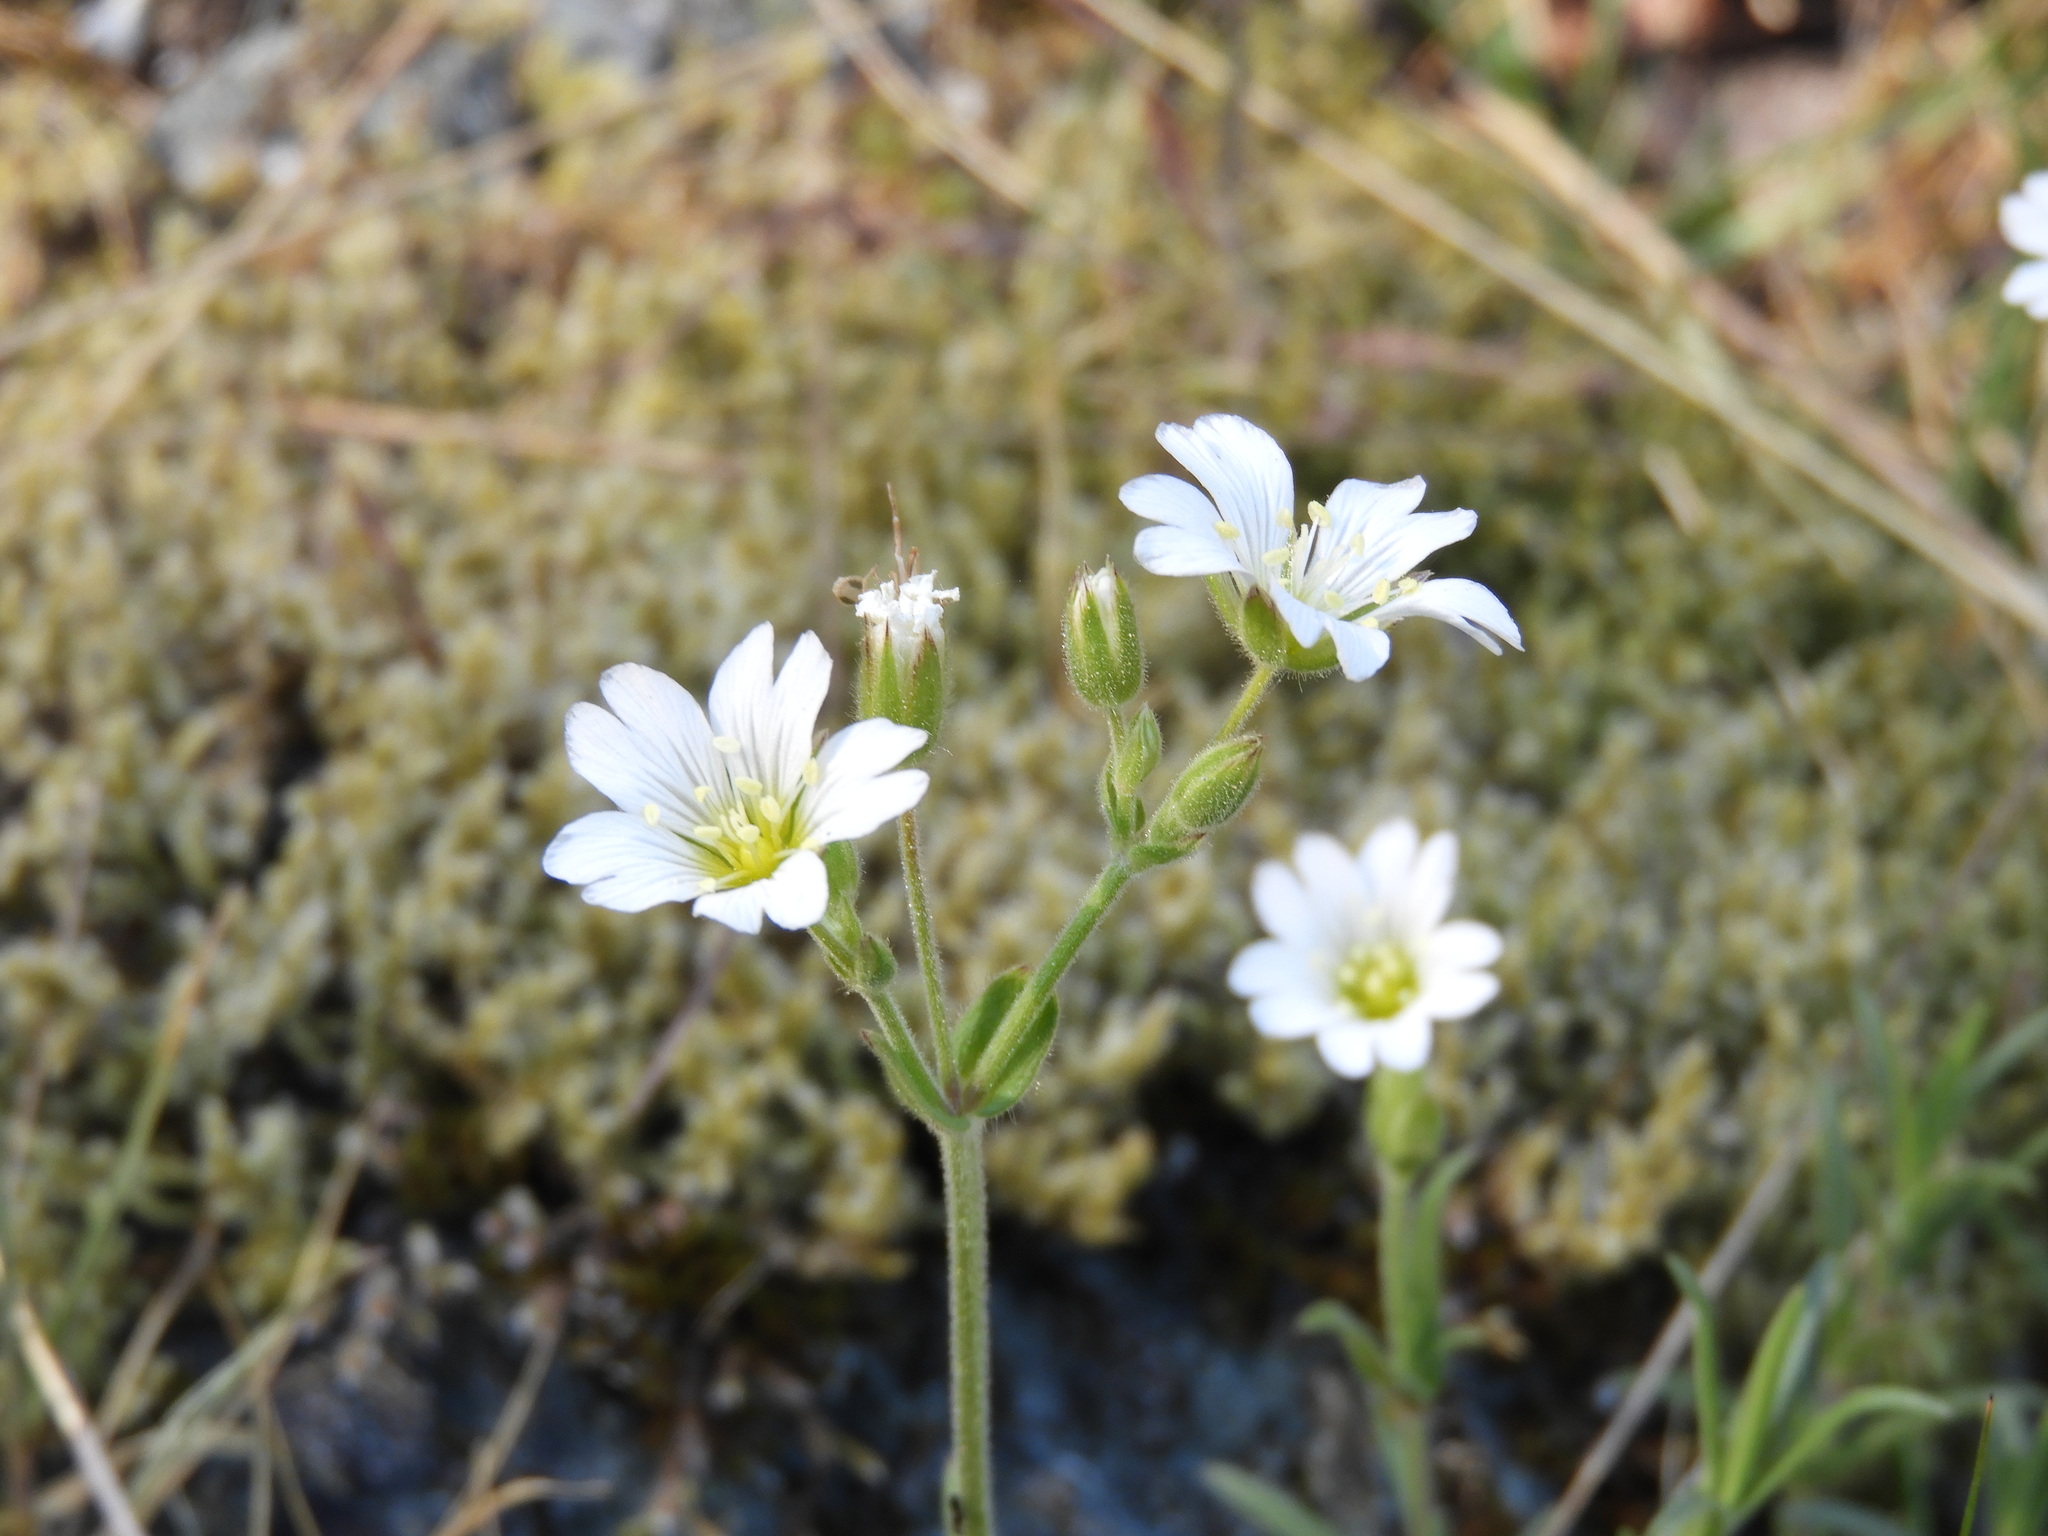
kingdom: Plantae
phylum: Tracheophyta
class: Magnoliopsida
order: Caryophyllales
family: Caryophyllaceae
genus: Cerastium
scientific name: Cerastium arvense
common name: Field mouse-ear
